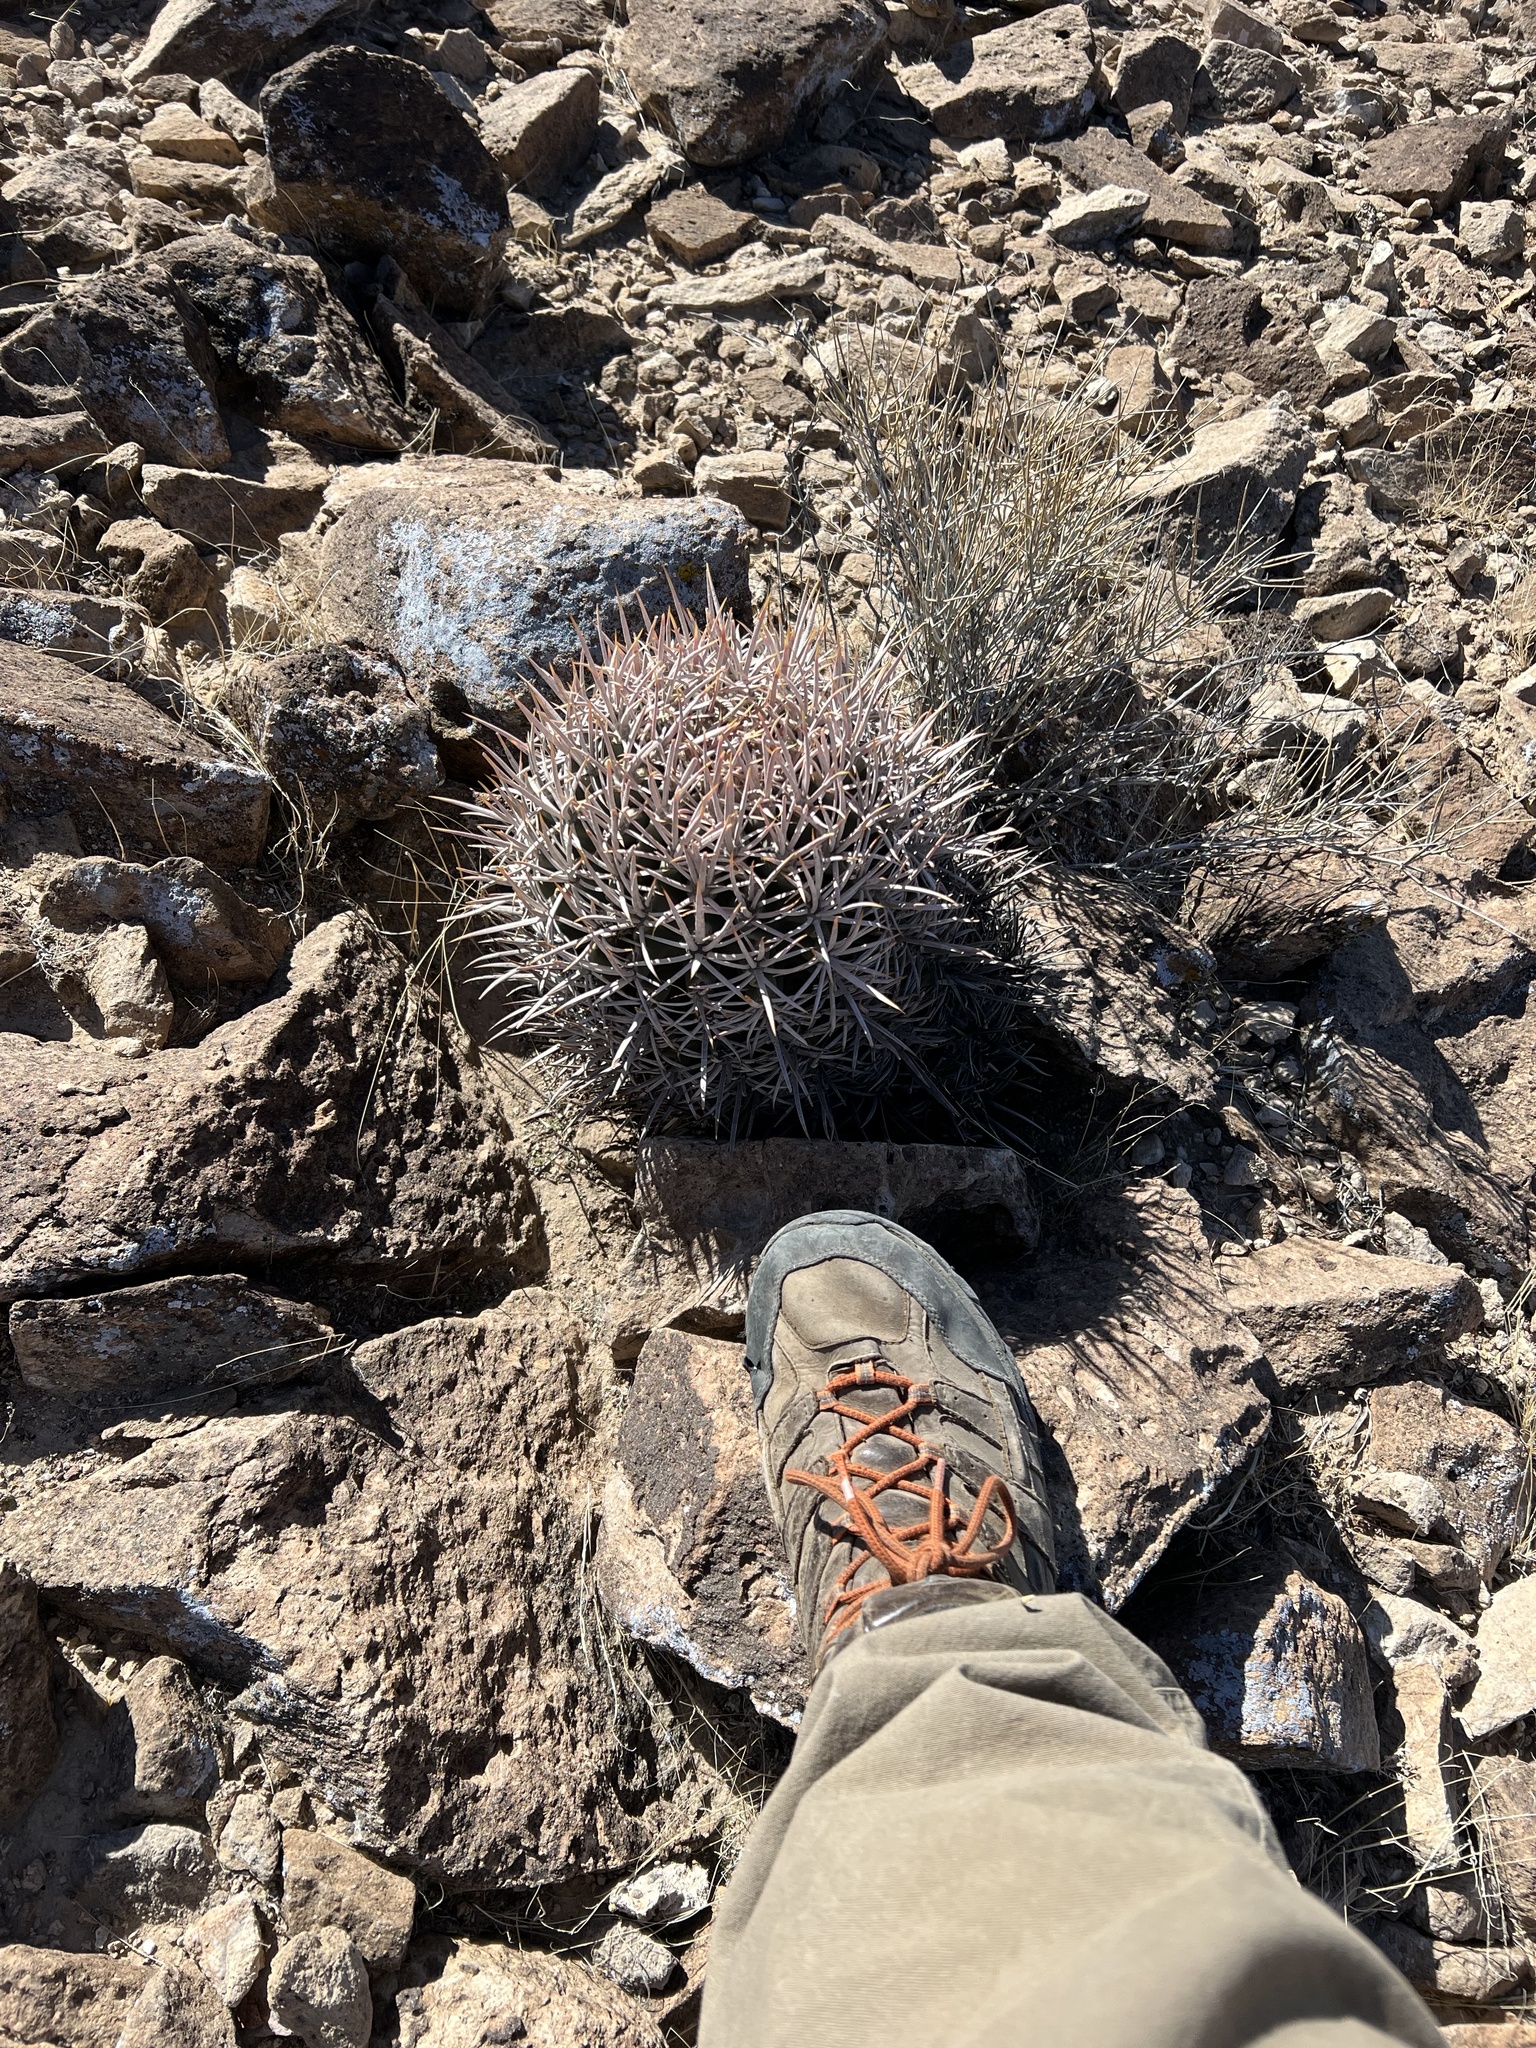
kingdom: Plantae
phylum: Tracheophyta
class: Magnoliopsida
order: Caryophyllales
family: Cactaceae
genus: Echinocactus
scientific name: Echinocactus polycephalus
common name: Cottontop cactus
